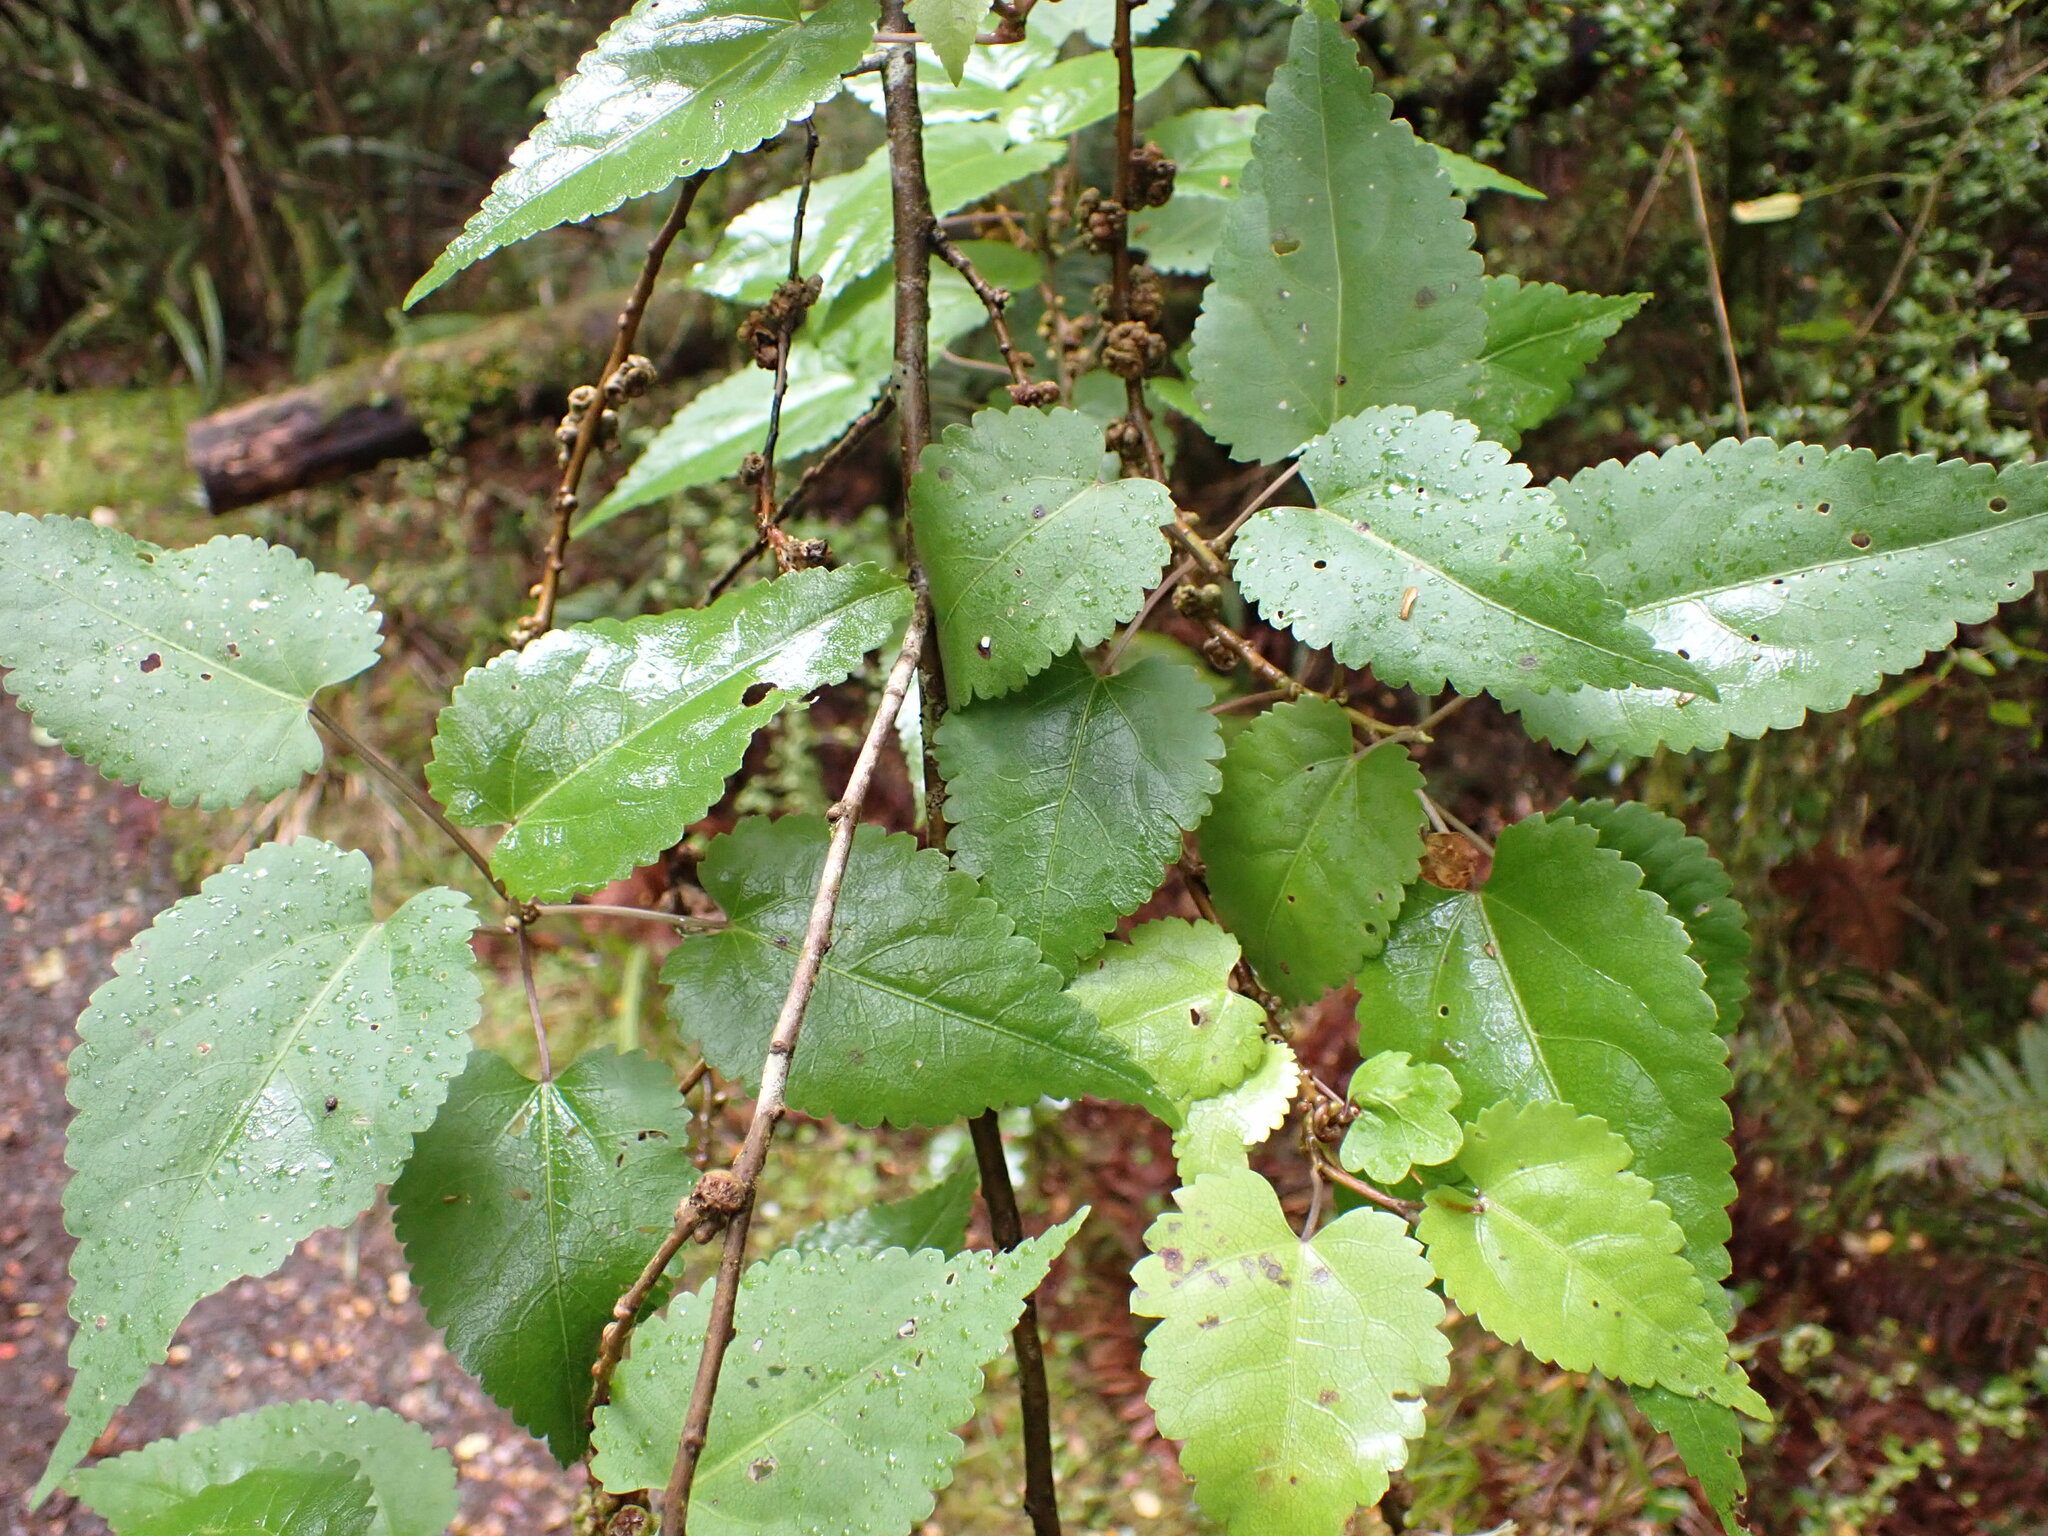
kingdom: Plantae
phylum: Tracheophyta
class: Magnoliopsida
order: Malvales
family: Malvaceae
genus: Hoheria
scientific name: Hoheria glabrata
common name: Mountain-ribbon
